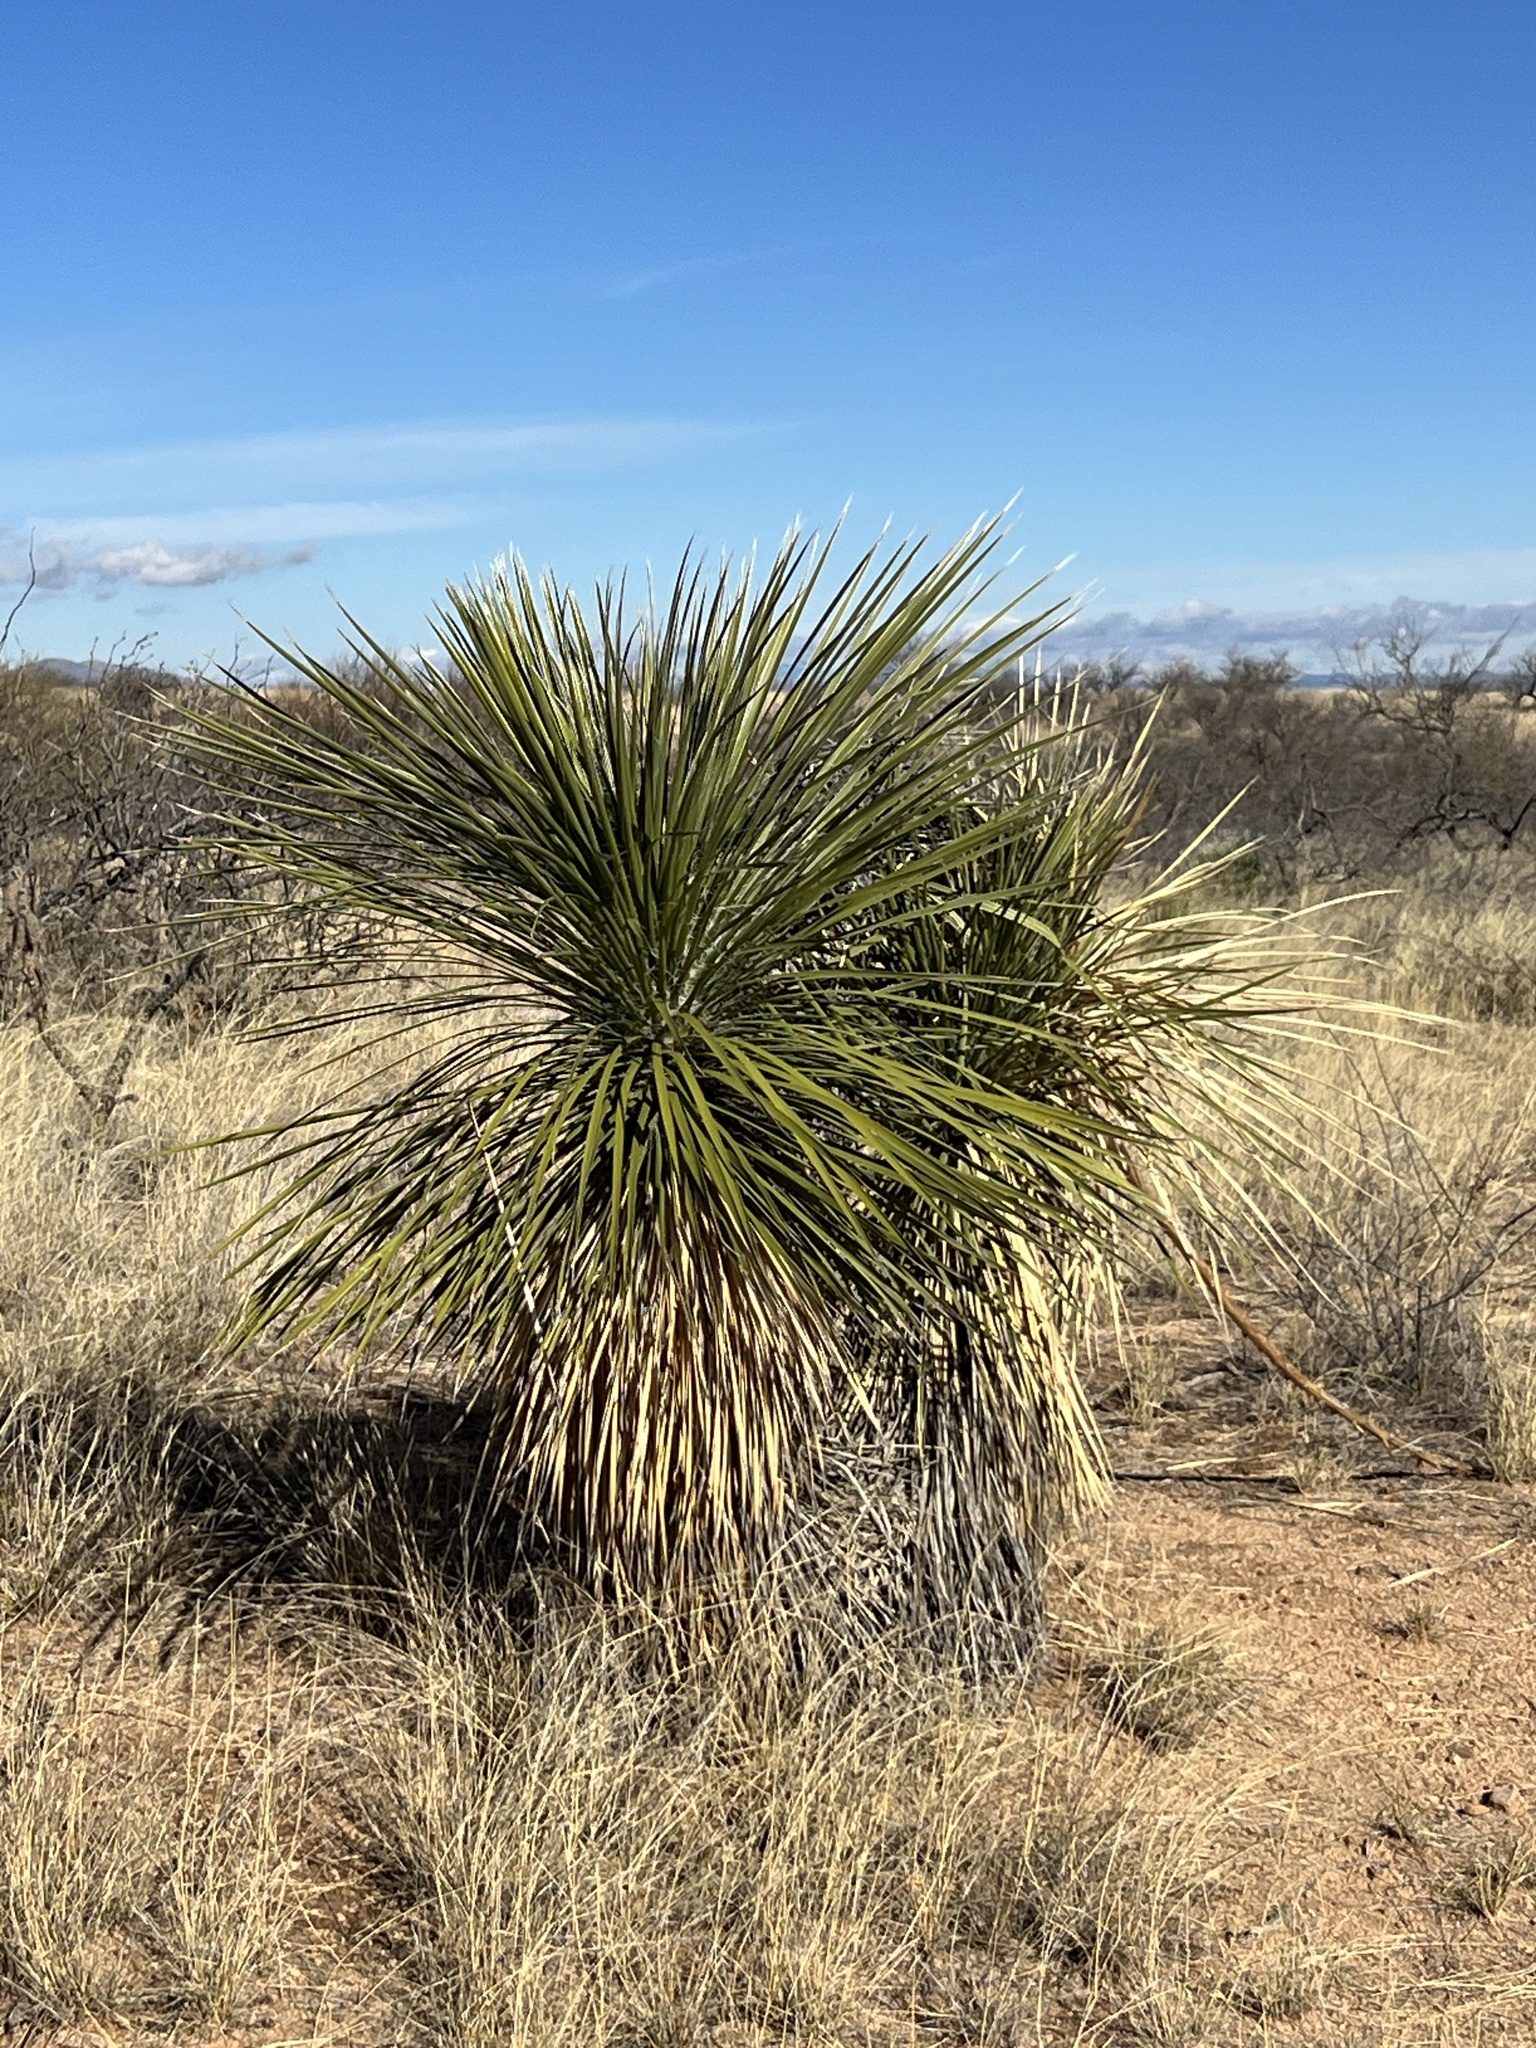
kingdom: Plantae
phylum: Tracheophyta
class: Liliopsida
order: Asparagales
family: Asparagaceae
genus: Yucca
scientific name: Yucca elata
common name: Palmella
